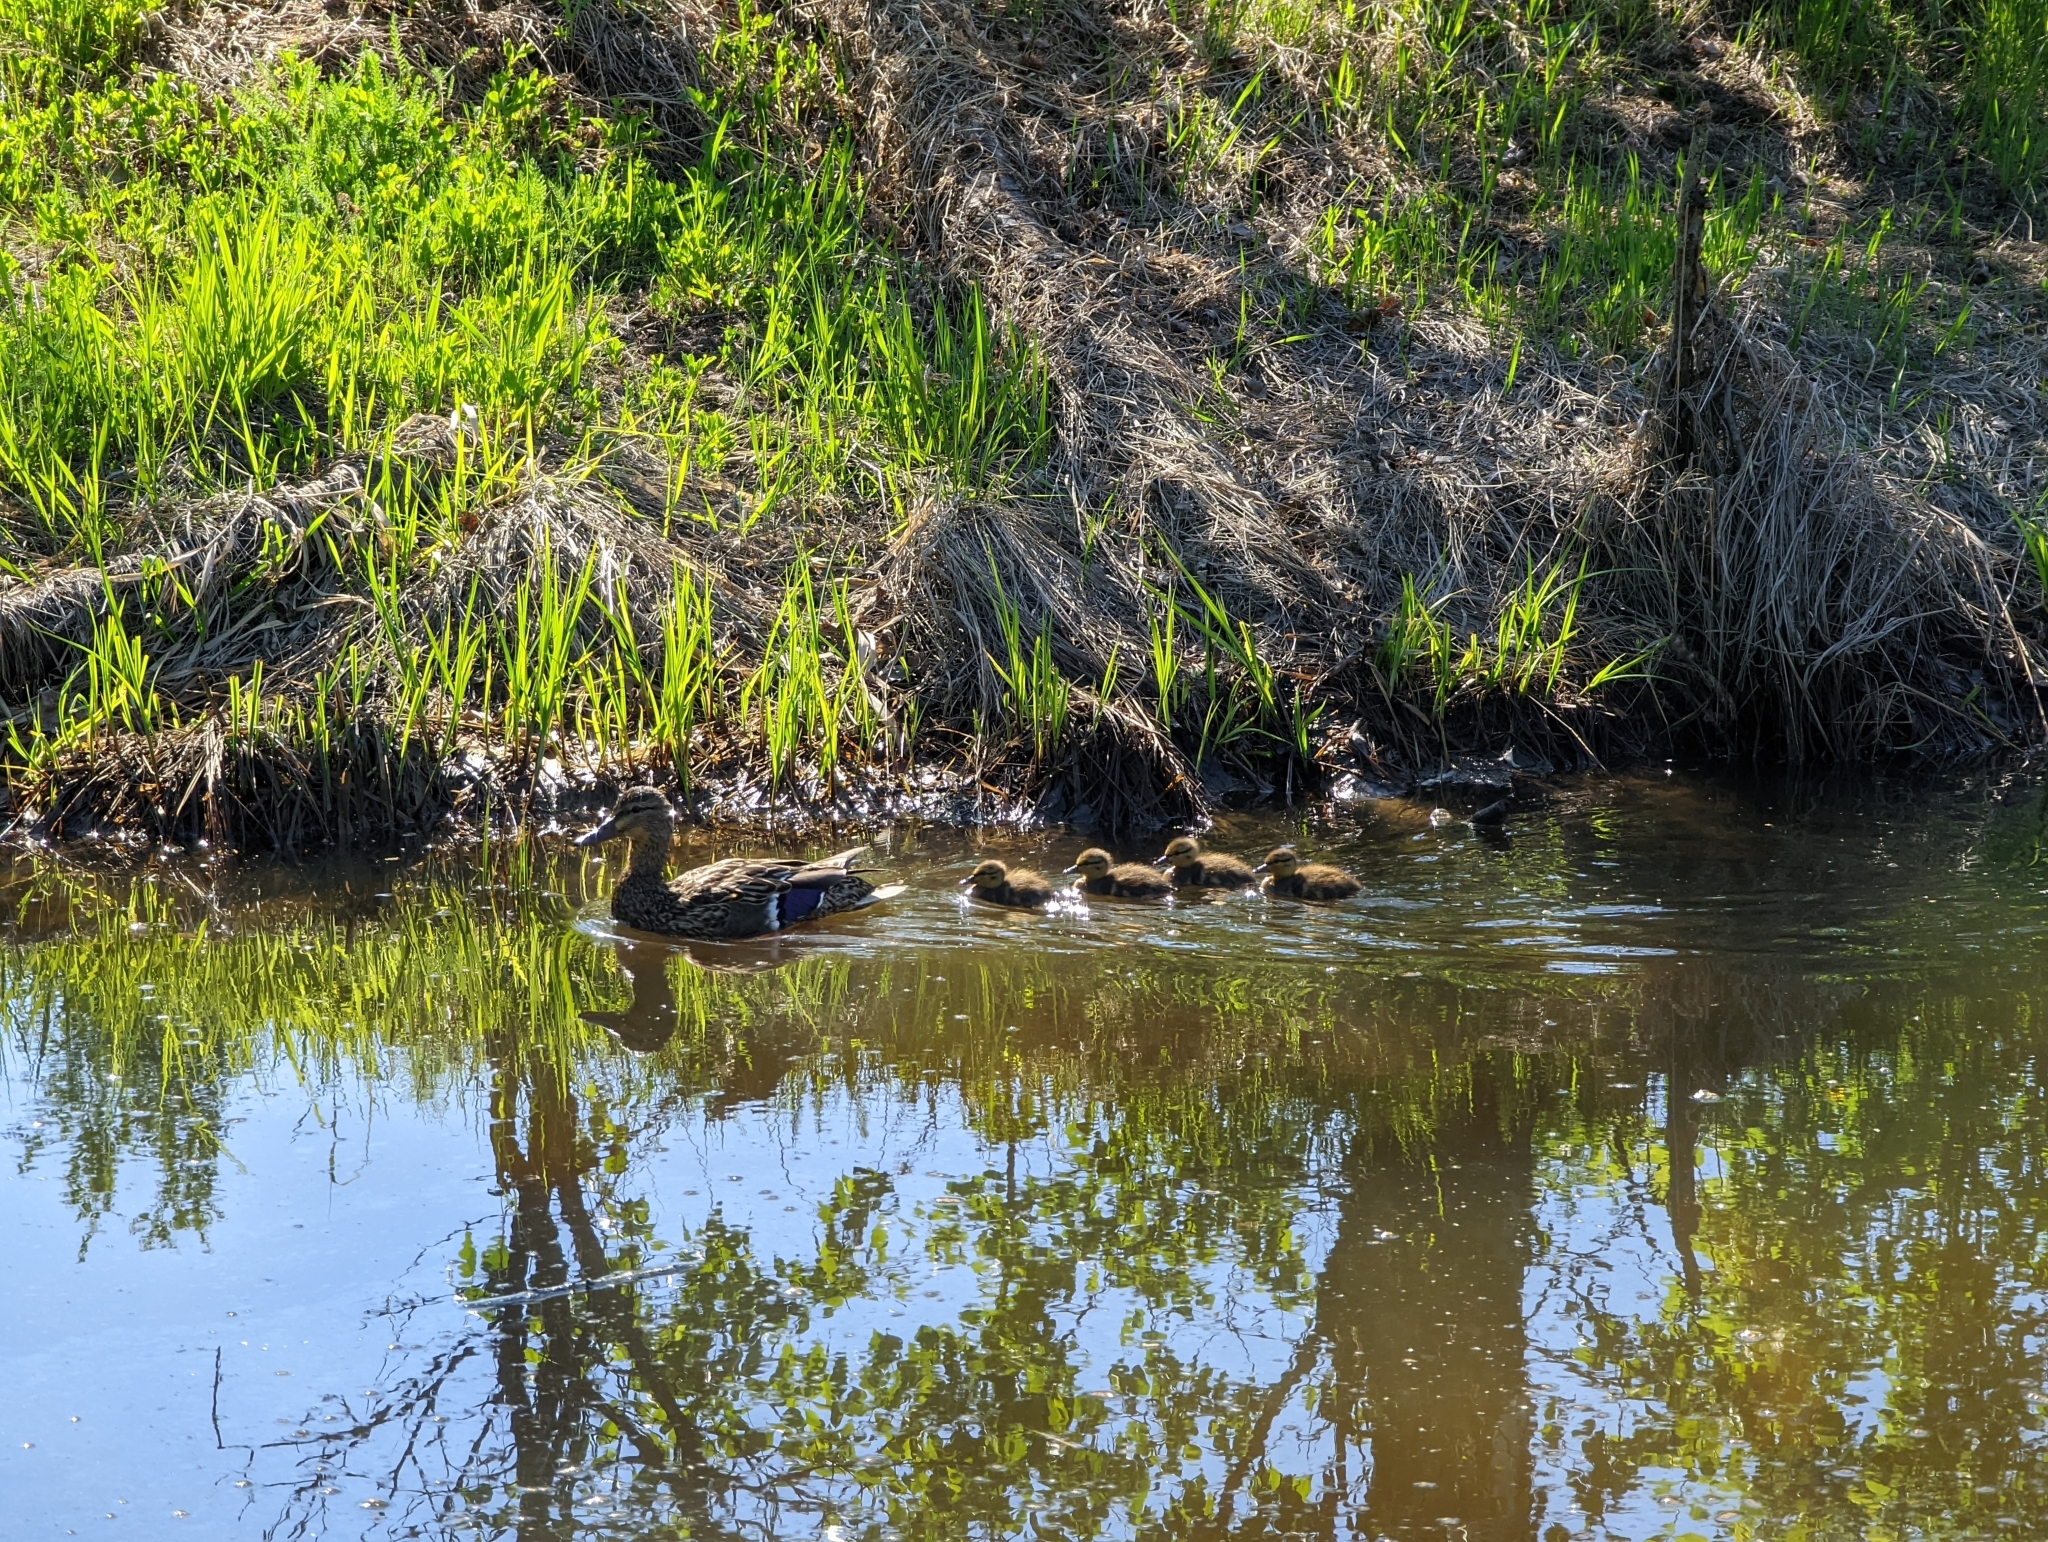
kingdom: Animalia
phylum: Chordata
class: Aves
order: Anseriformes
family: Anatidae
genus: Anas
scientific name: Anas platyrhynchos
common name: Mallard
